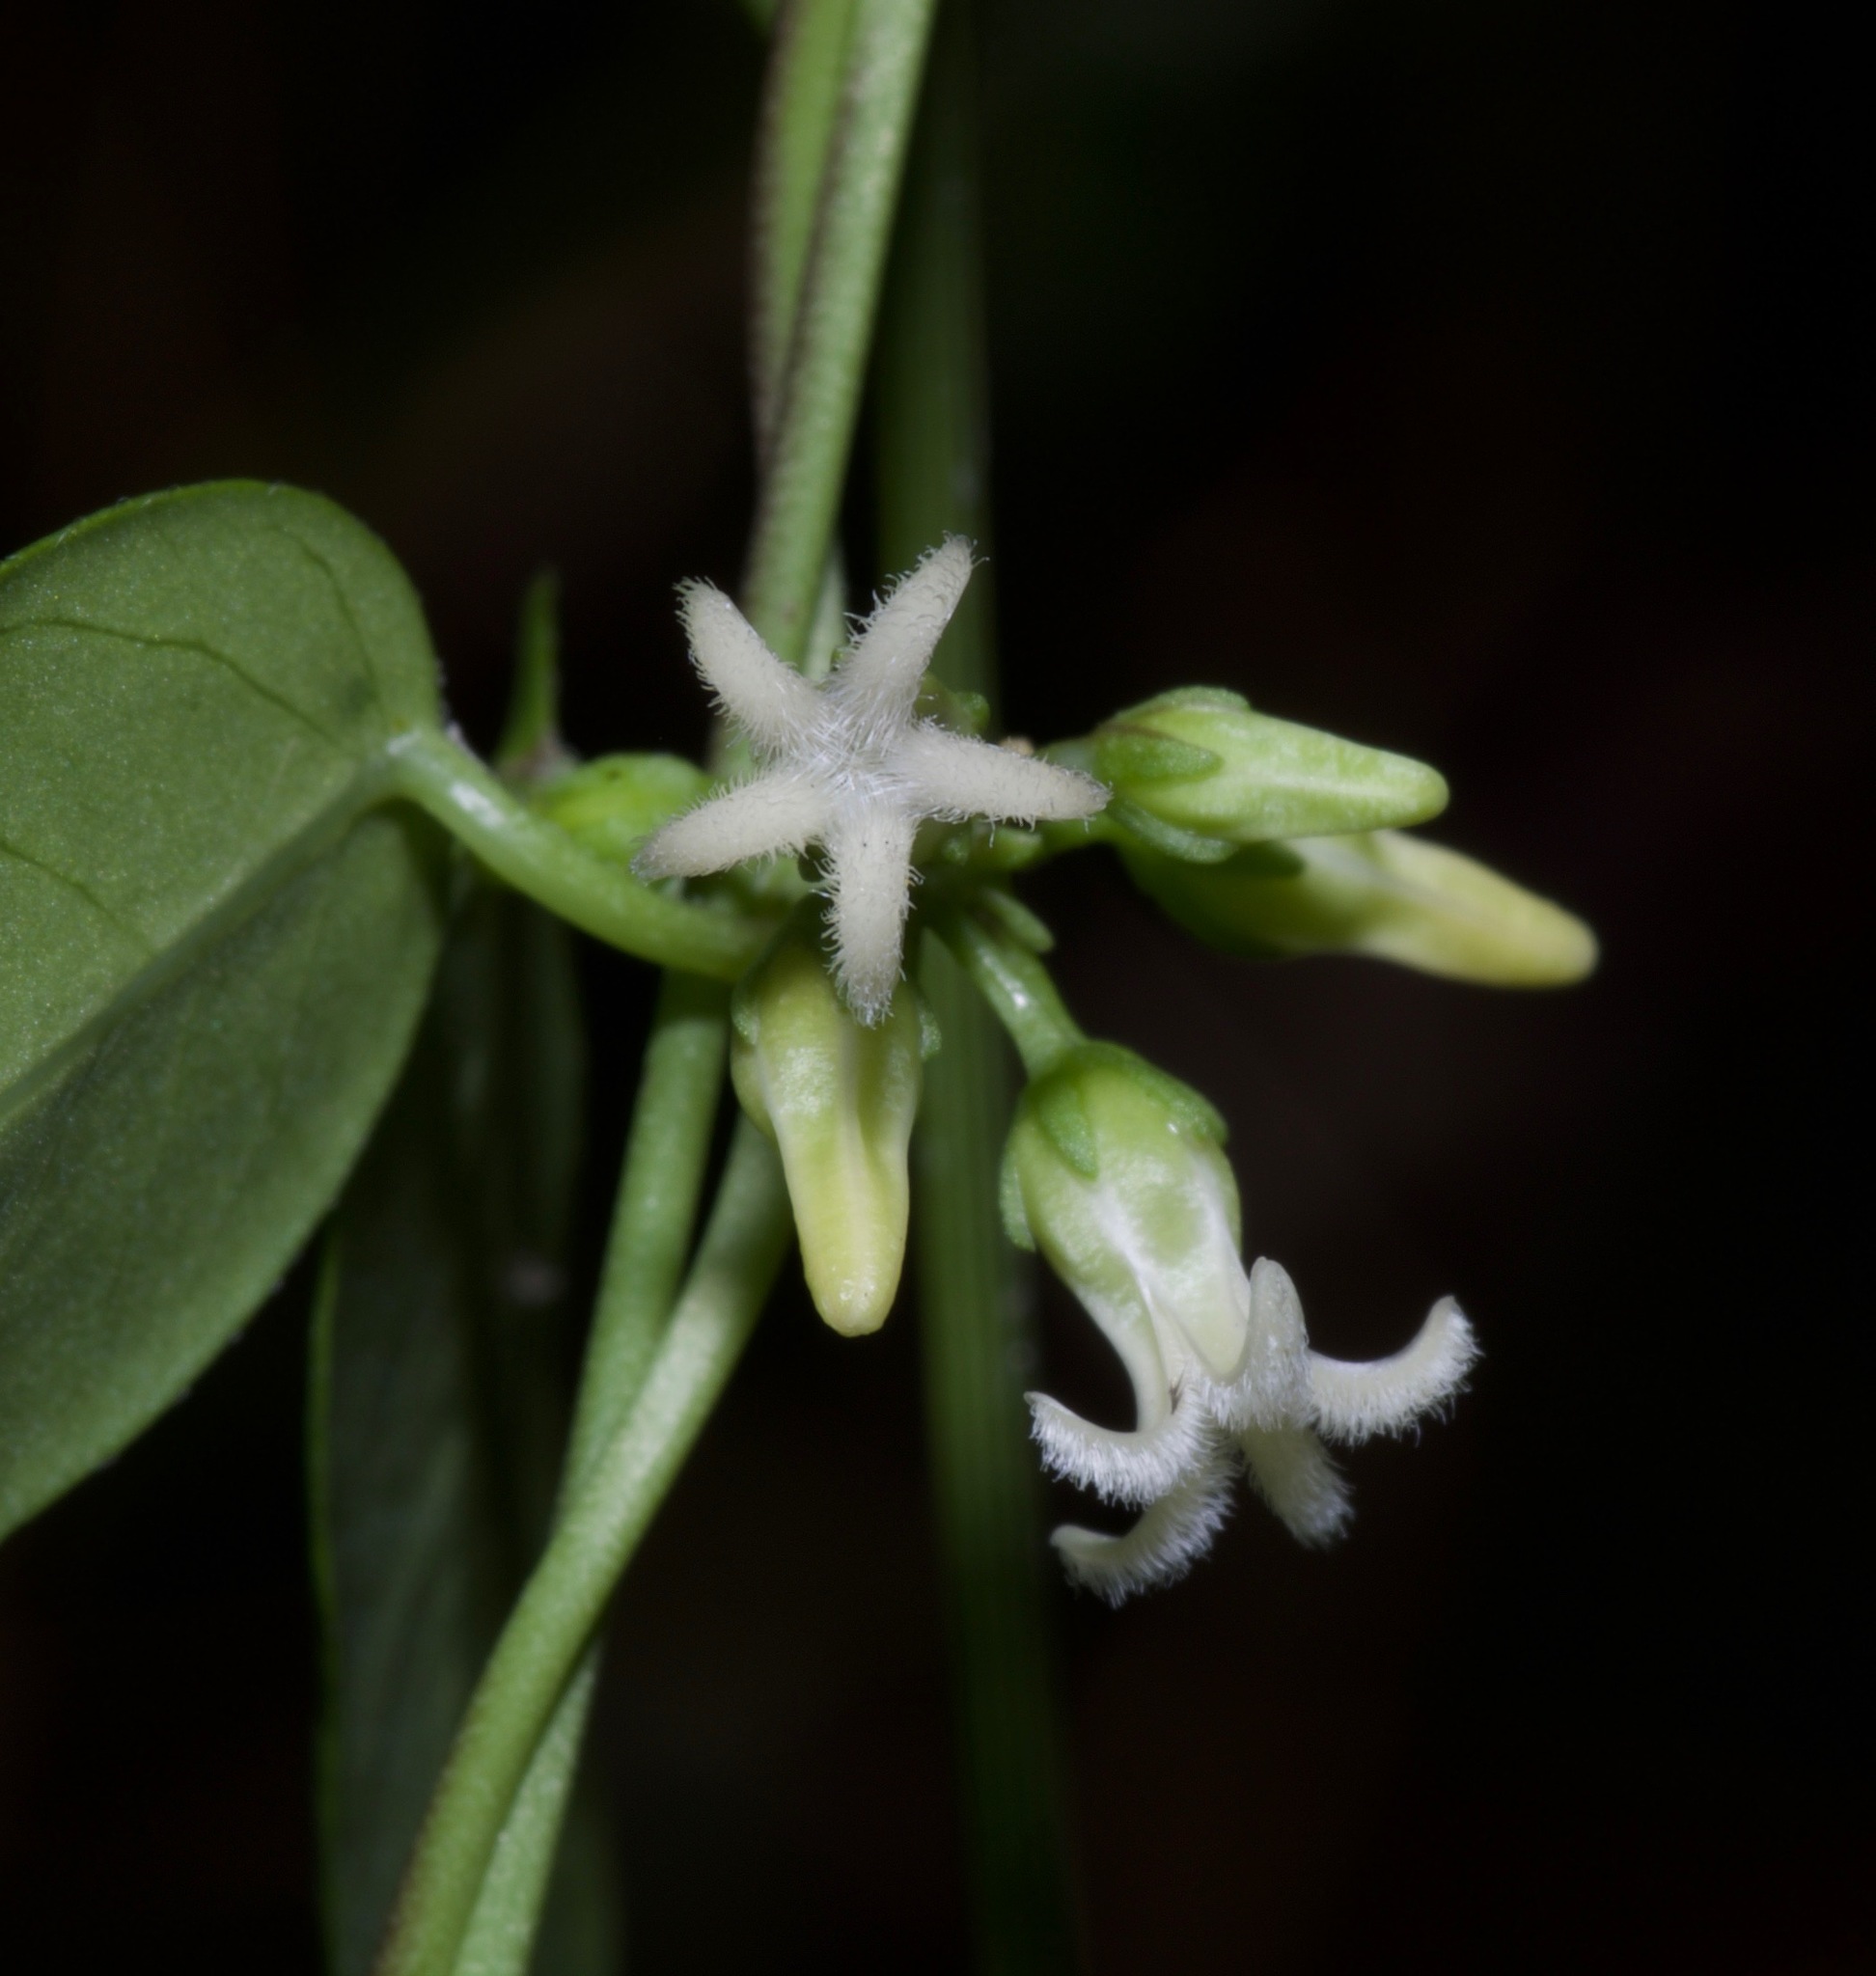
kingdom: Plantae
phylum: Tracheophyta
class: Magnoliopsida
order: Gentianales
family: Apocynaceae
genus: Metastelma
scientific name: Metastelma barbigerum
